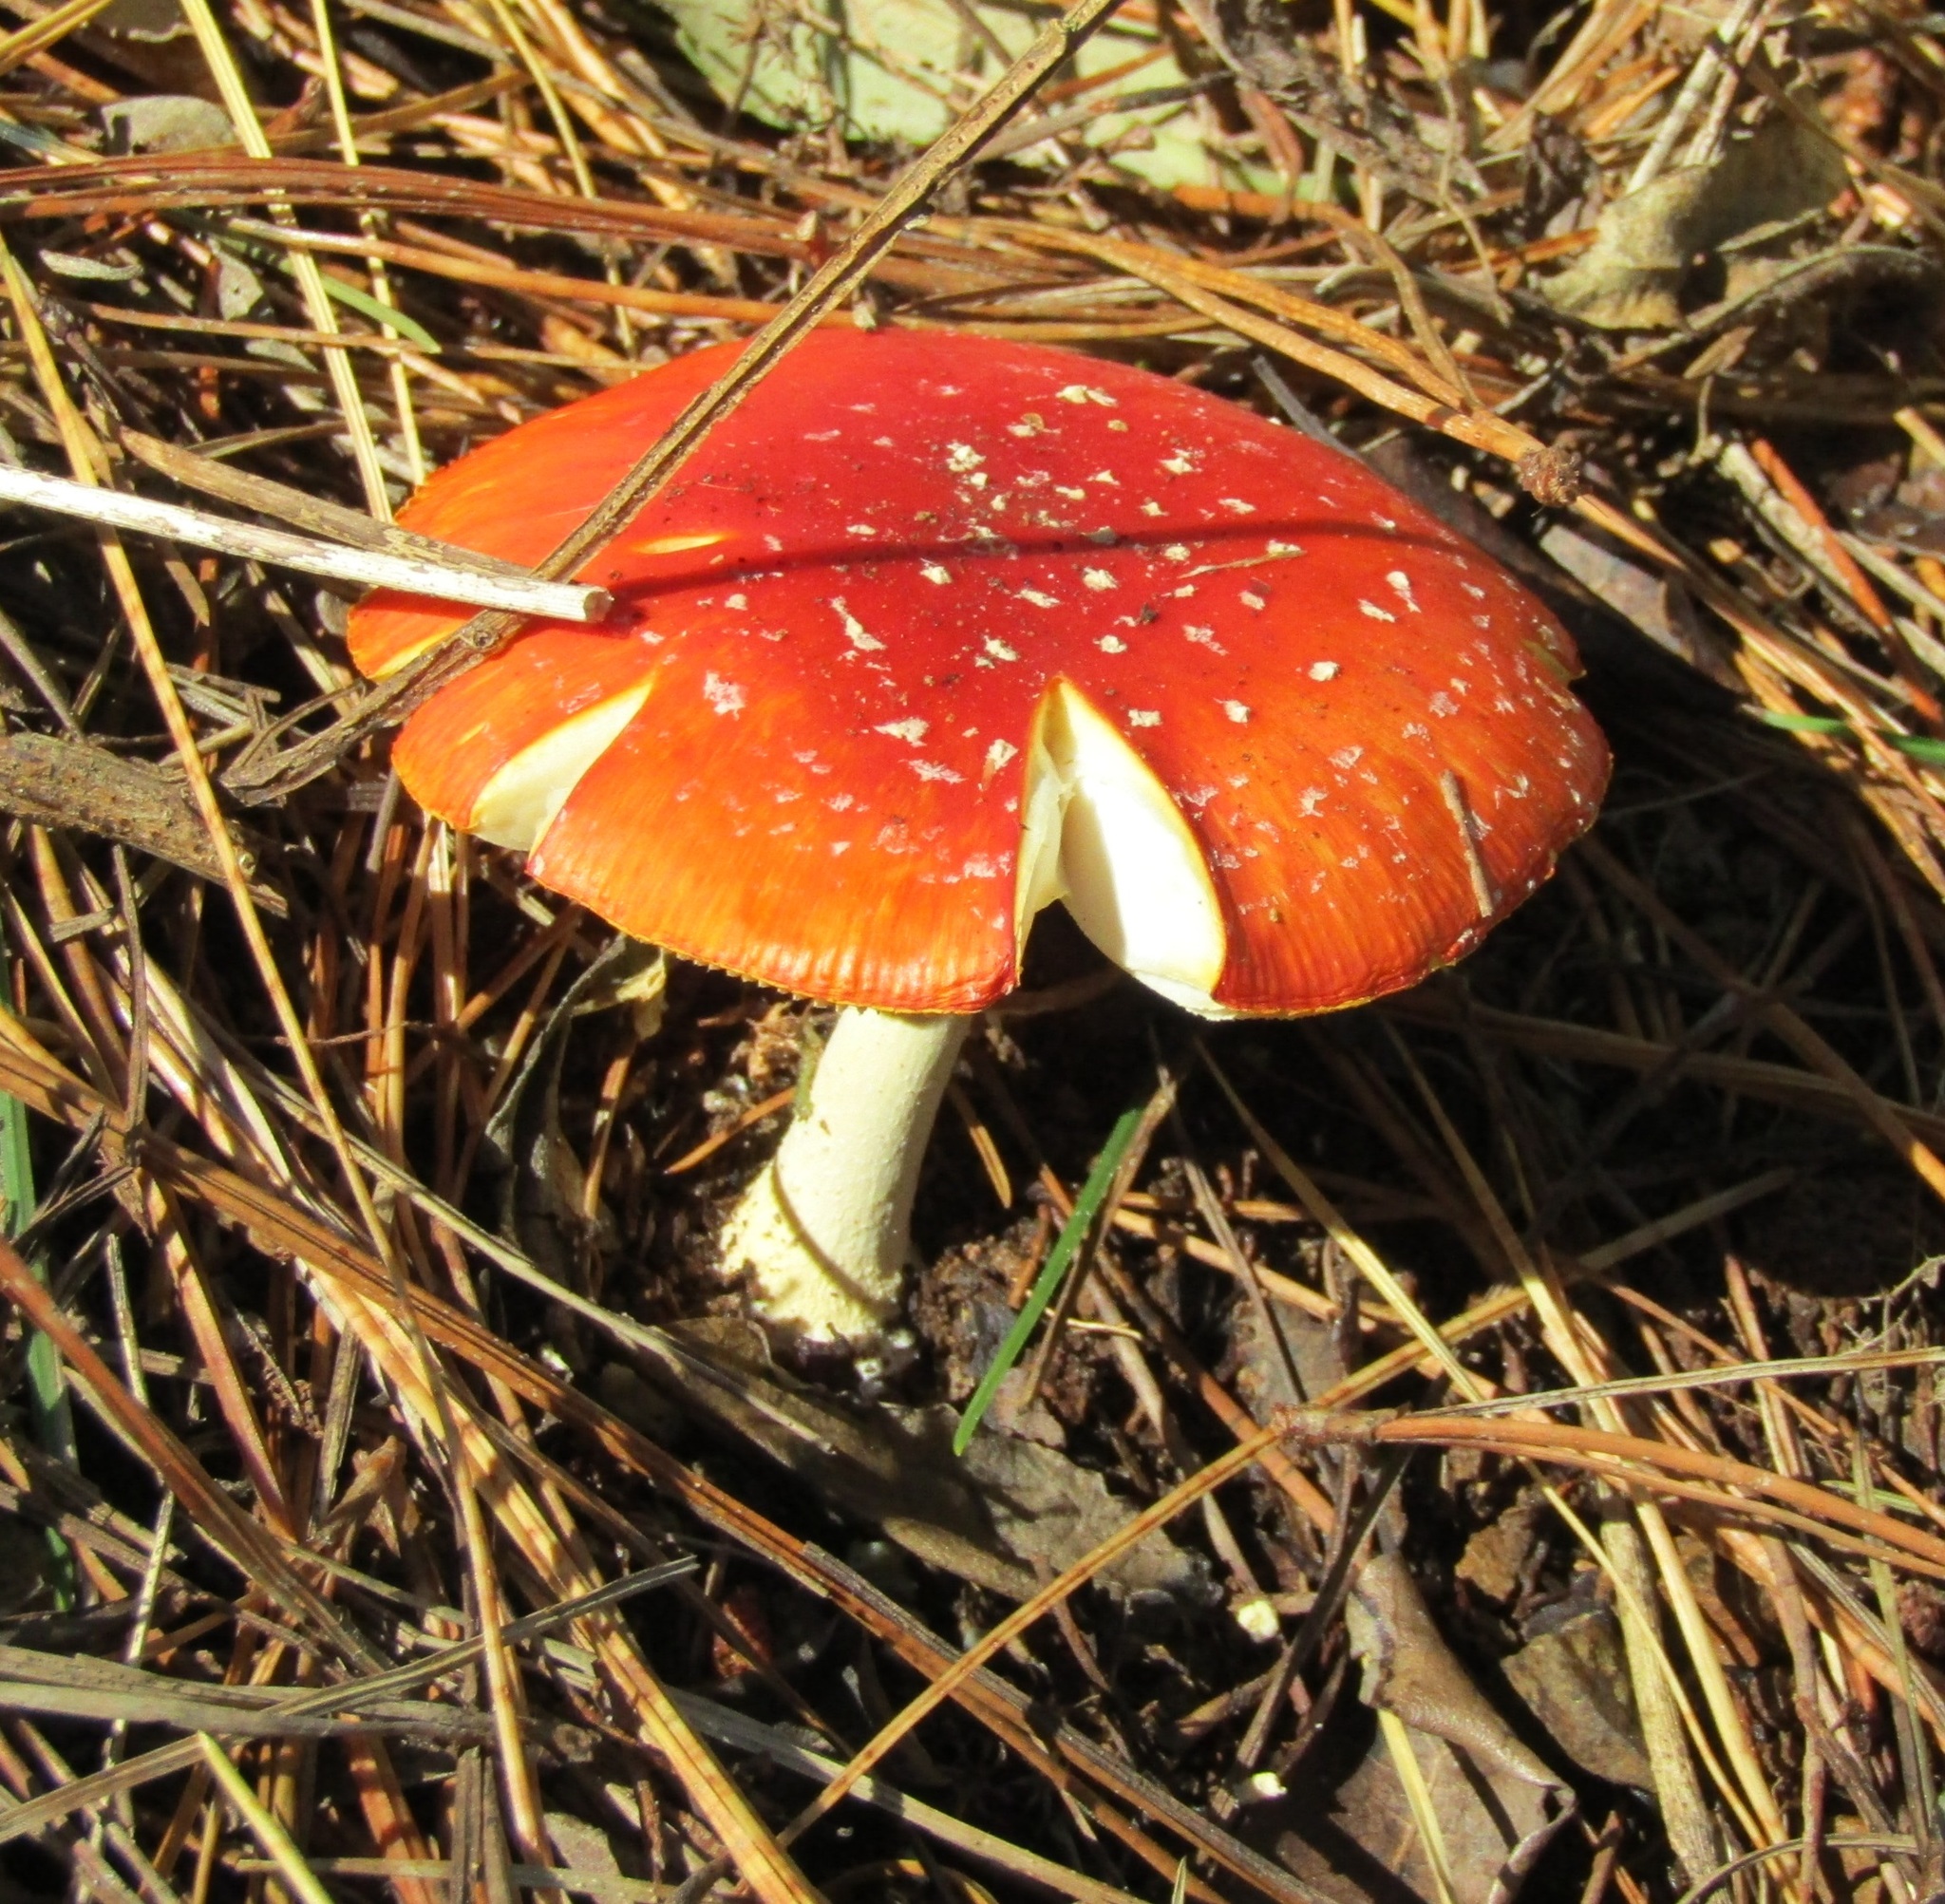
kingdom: Fungi
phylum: Basidiomycota
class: Agaricomycetes
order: Agaricales
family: Amanitaceae
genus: Amanita
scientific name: Amanita muscaria
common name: Fly agaric
